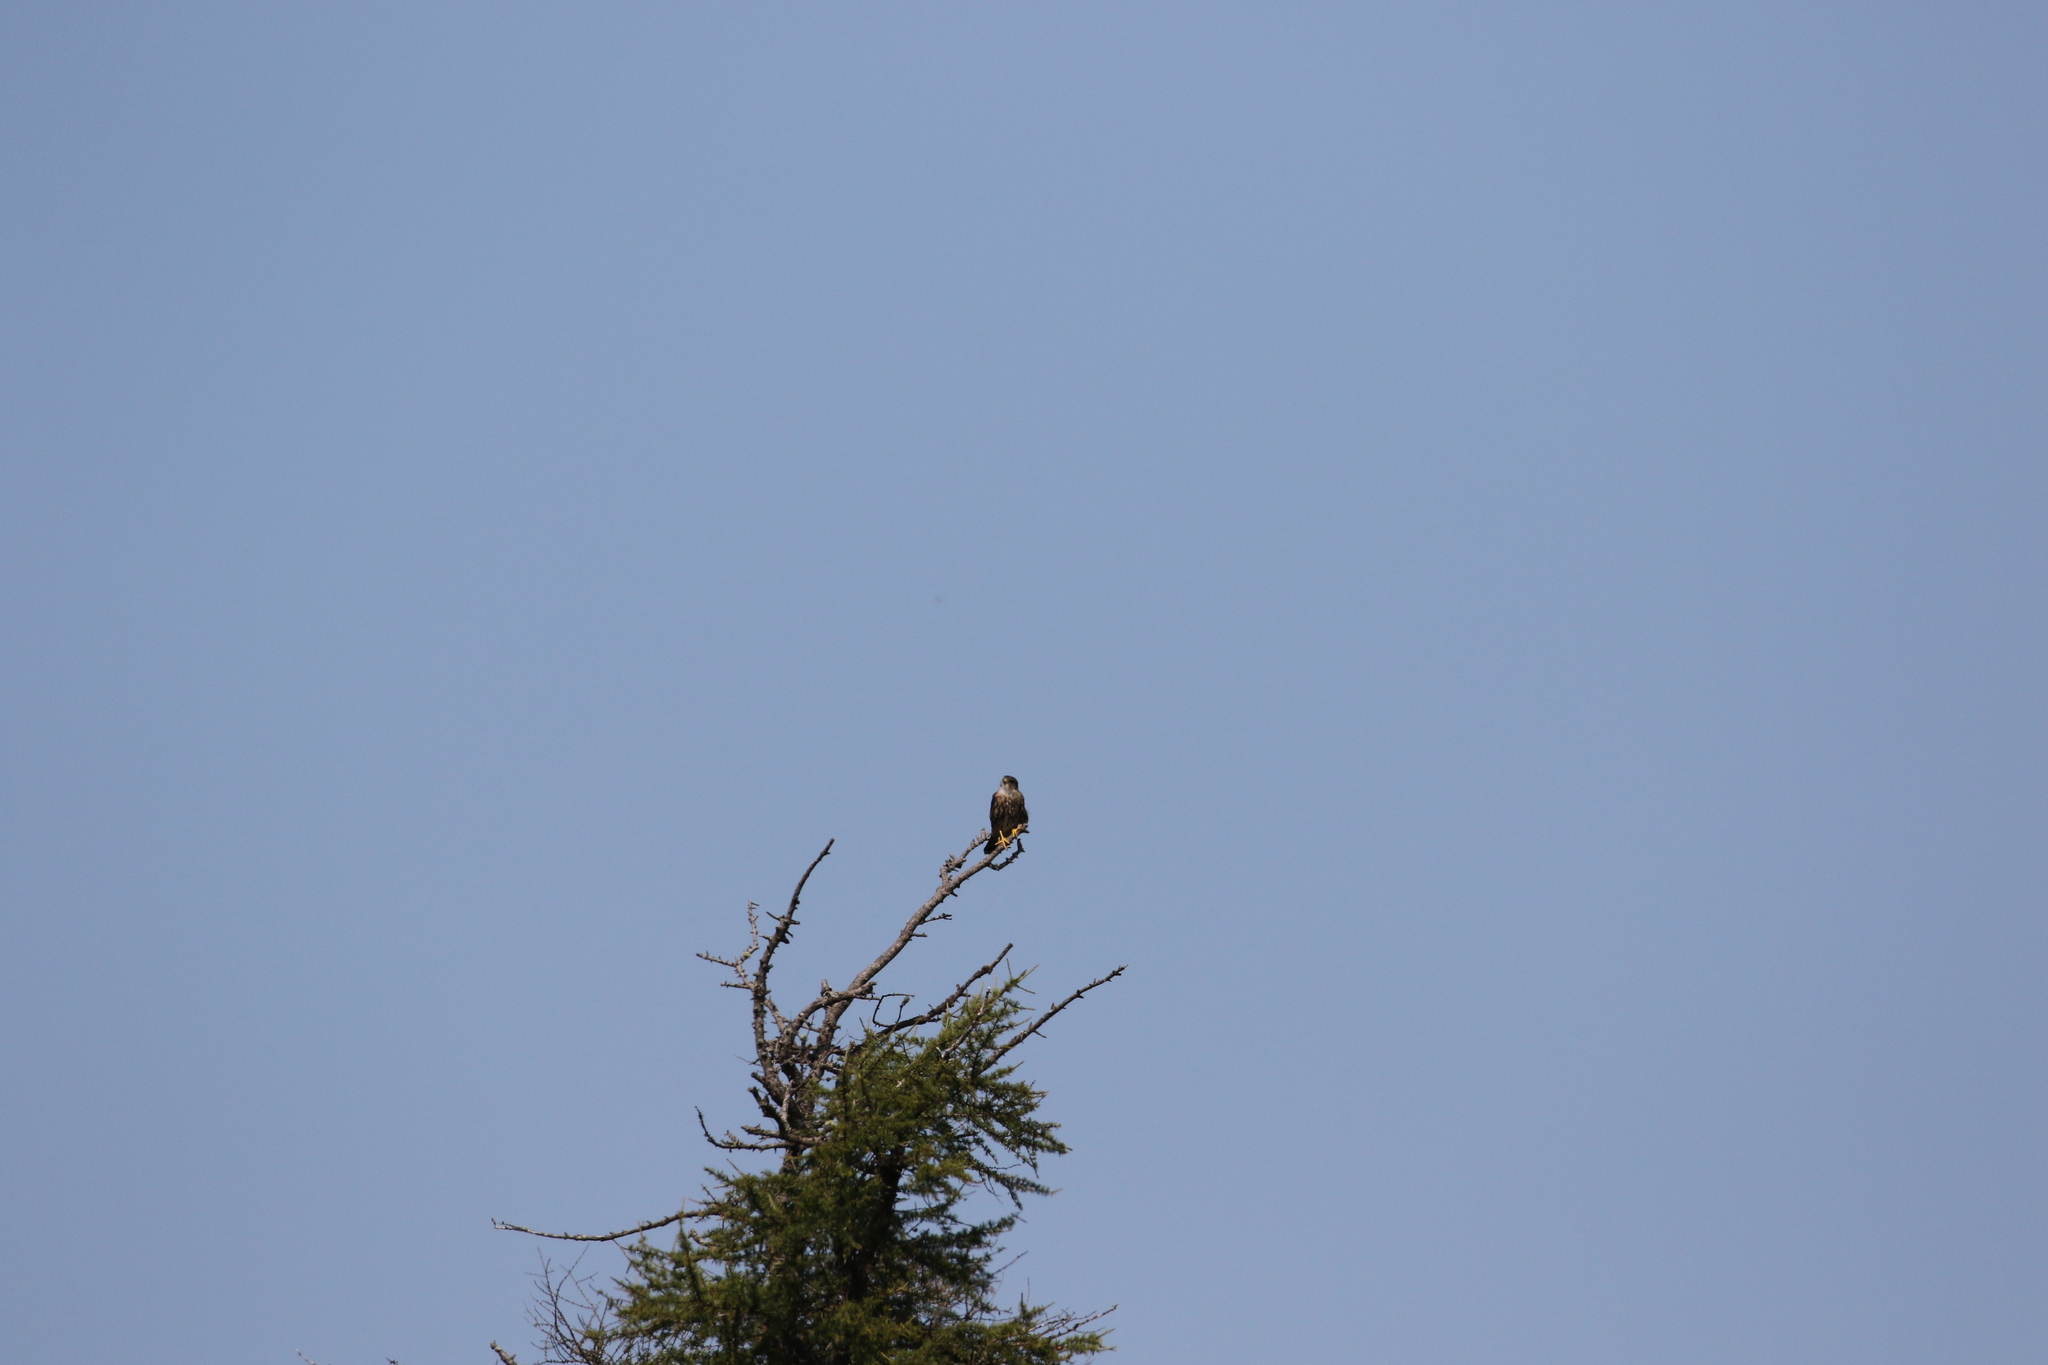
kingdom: Animalia
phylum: Chordata
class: Aves
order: Falconiformes
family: Falconidae
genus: Falco
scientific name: Falco columbarius
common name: Merlin
